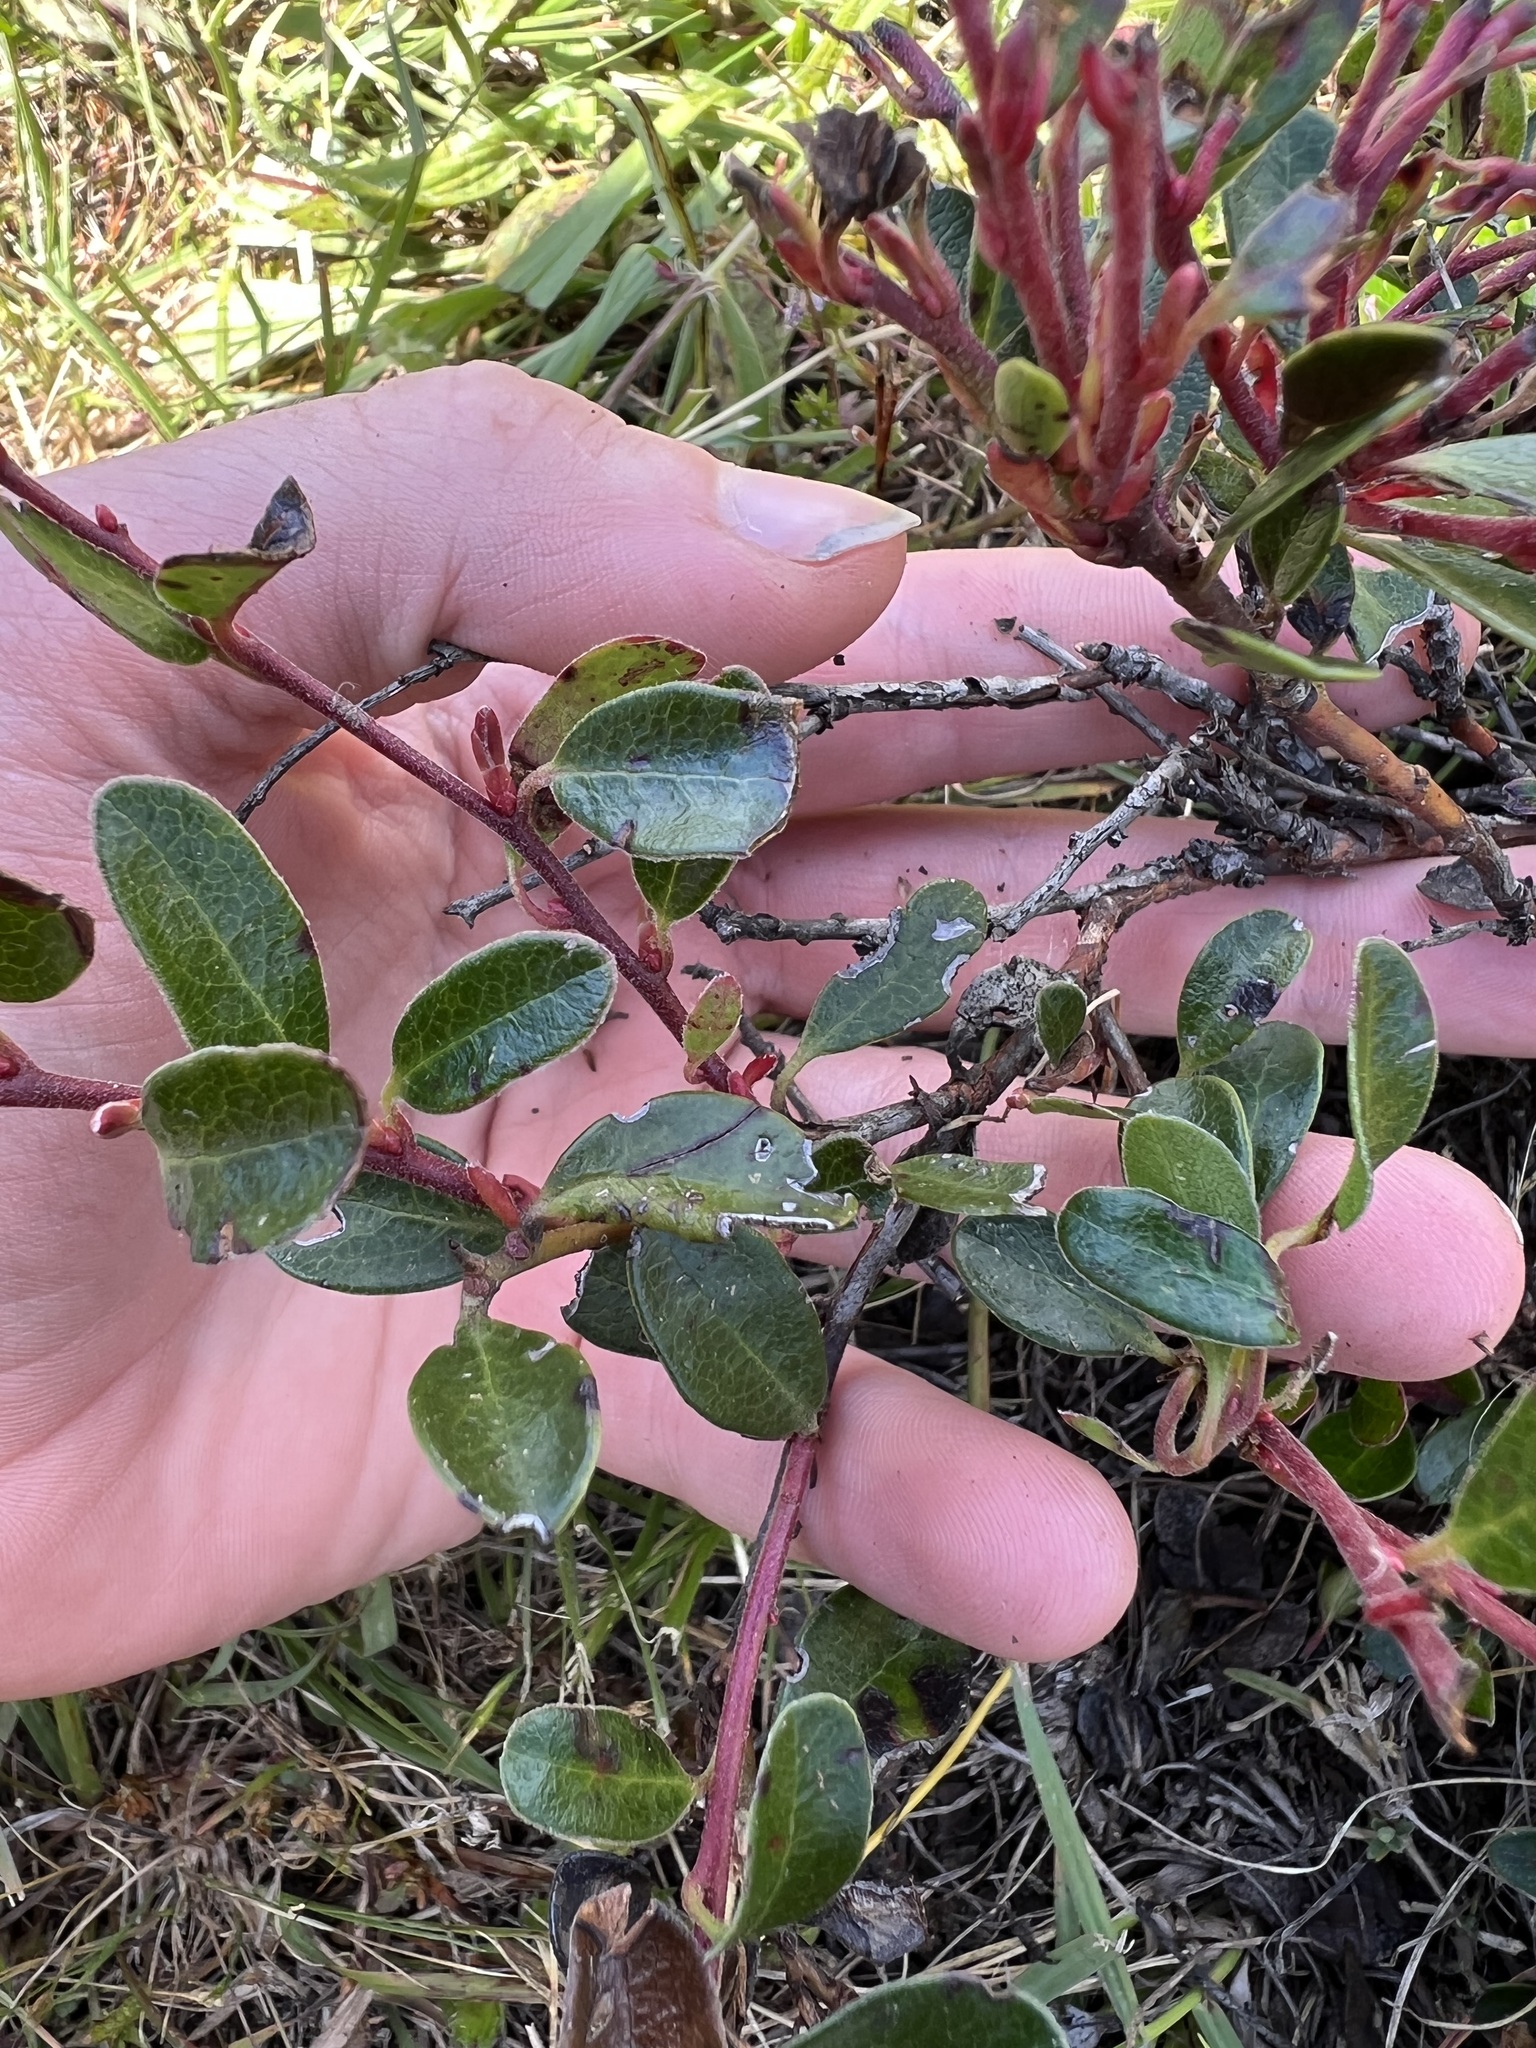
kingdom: Plantae
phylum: Tracheophyta
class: Magnoliopsida
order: Ericales
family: Ericaceae
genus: Arctostaphylos
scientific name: Arctostaphylos uva-ursi
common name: Bearberry
